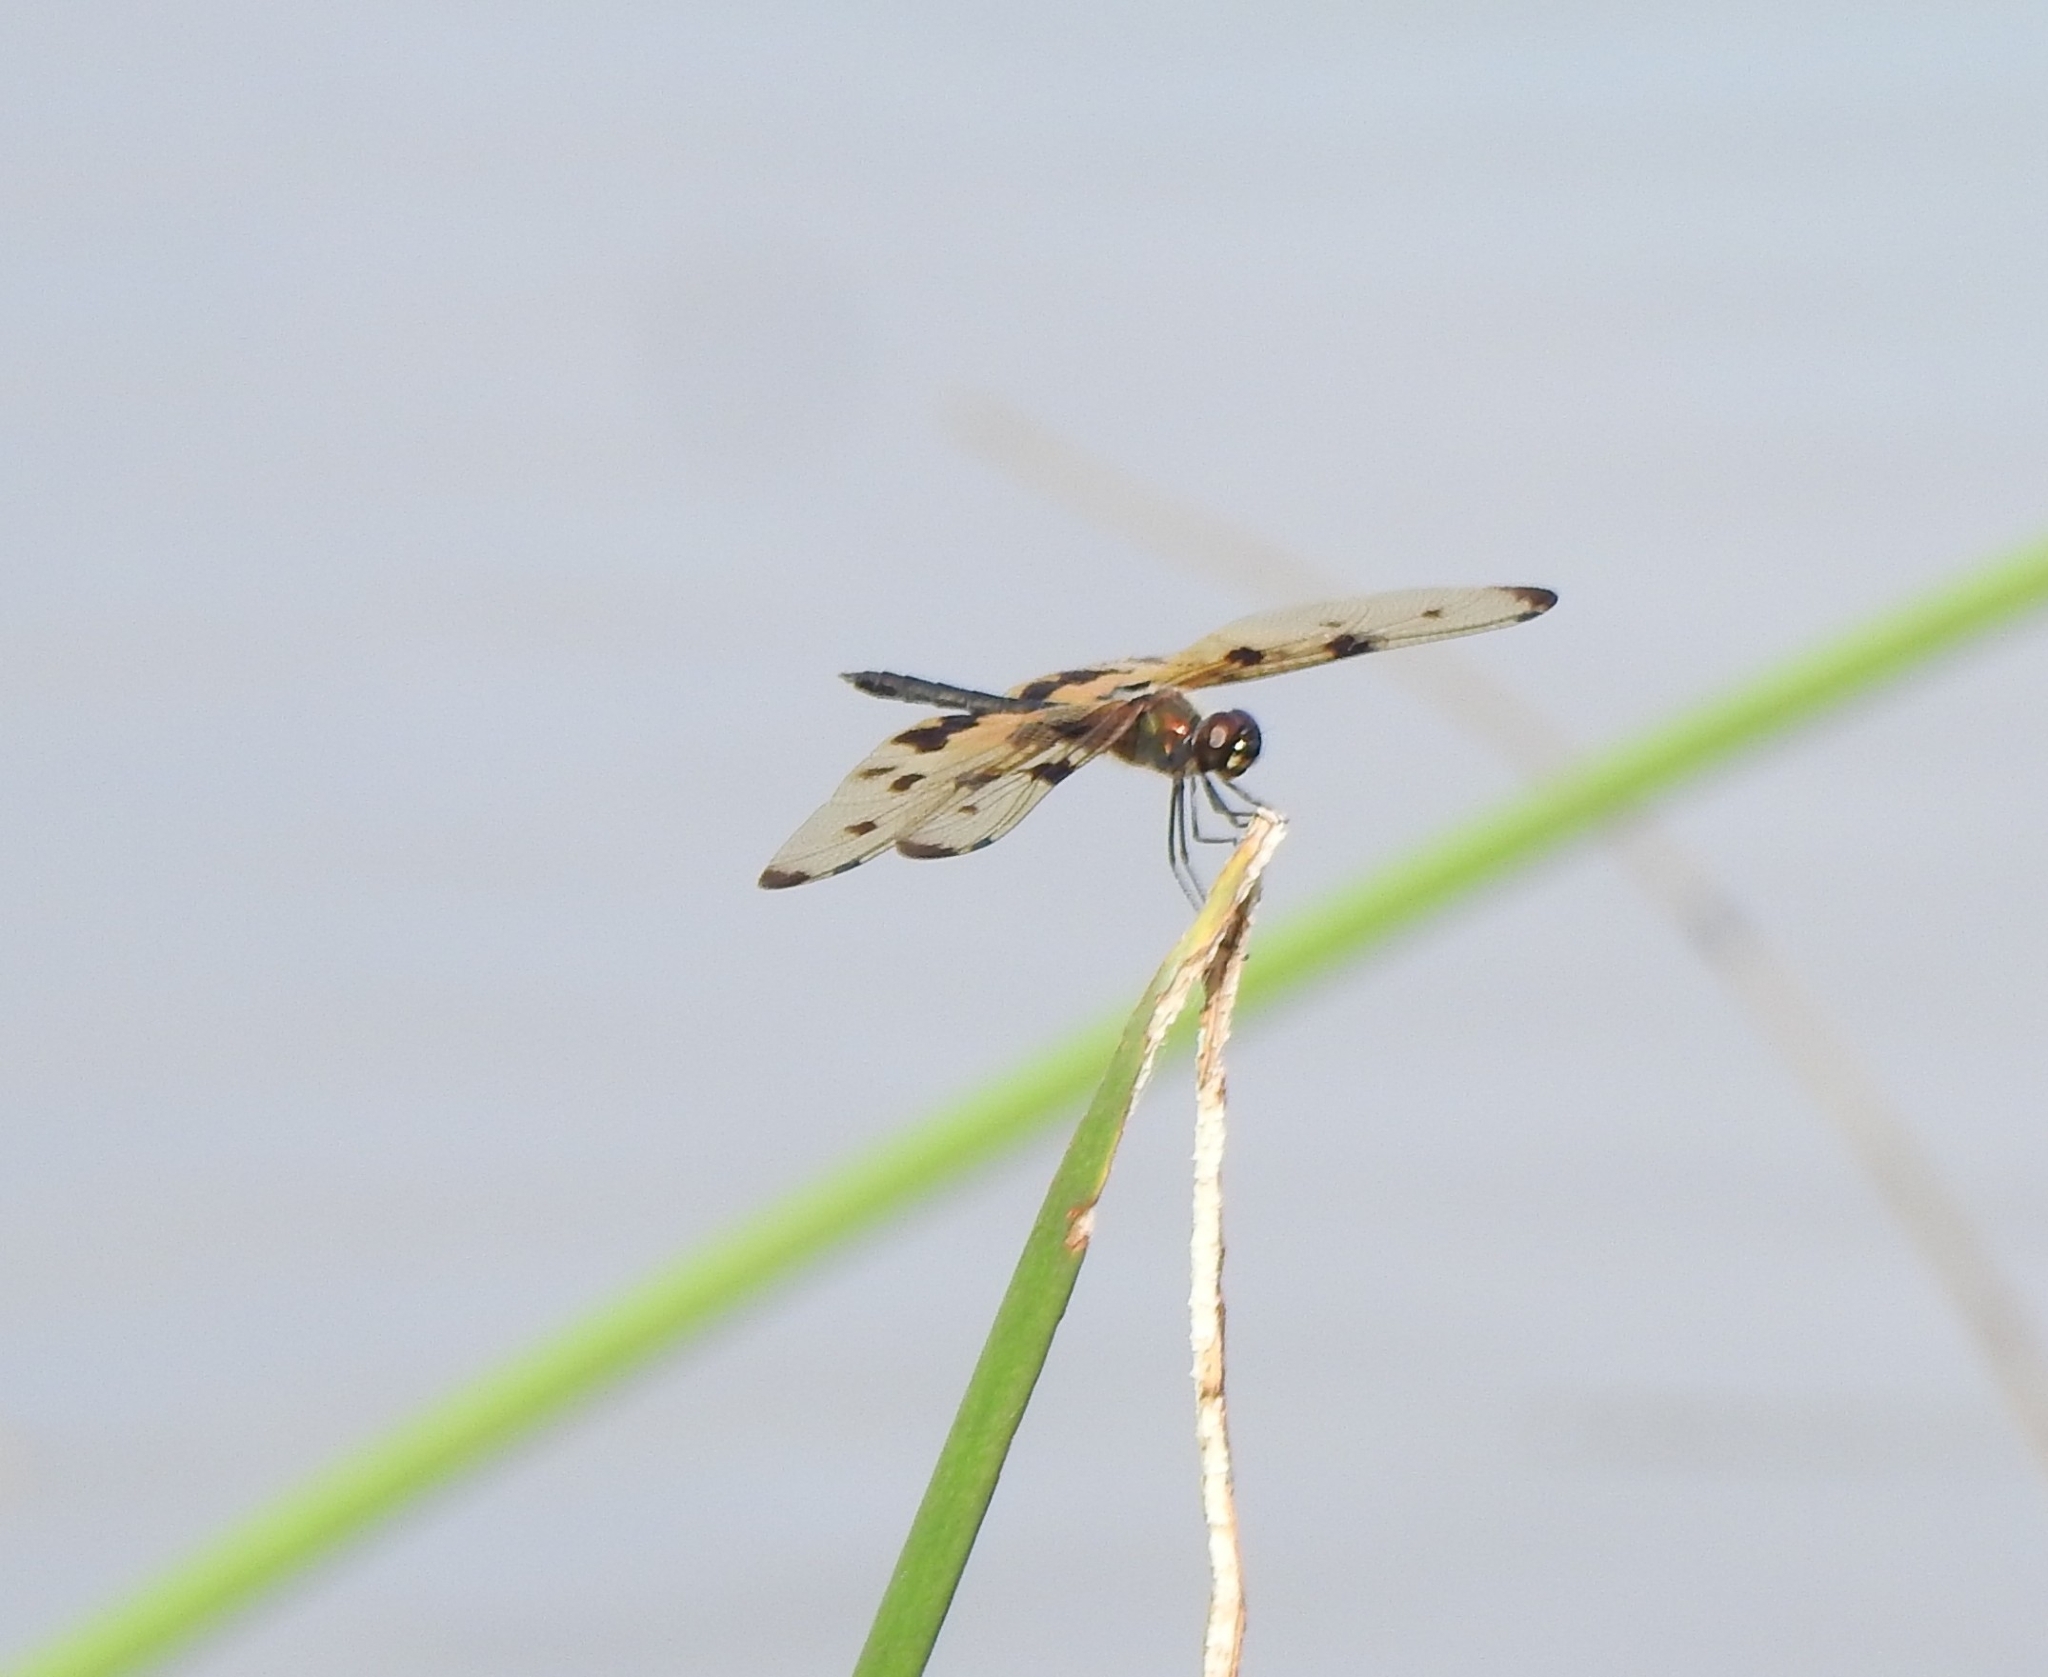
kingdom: Animalia
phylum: Arthropoda
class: Insecta
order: Odonata
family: Libellulidae
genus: Rhyothemis
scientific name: Rhyothemis variegata
